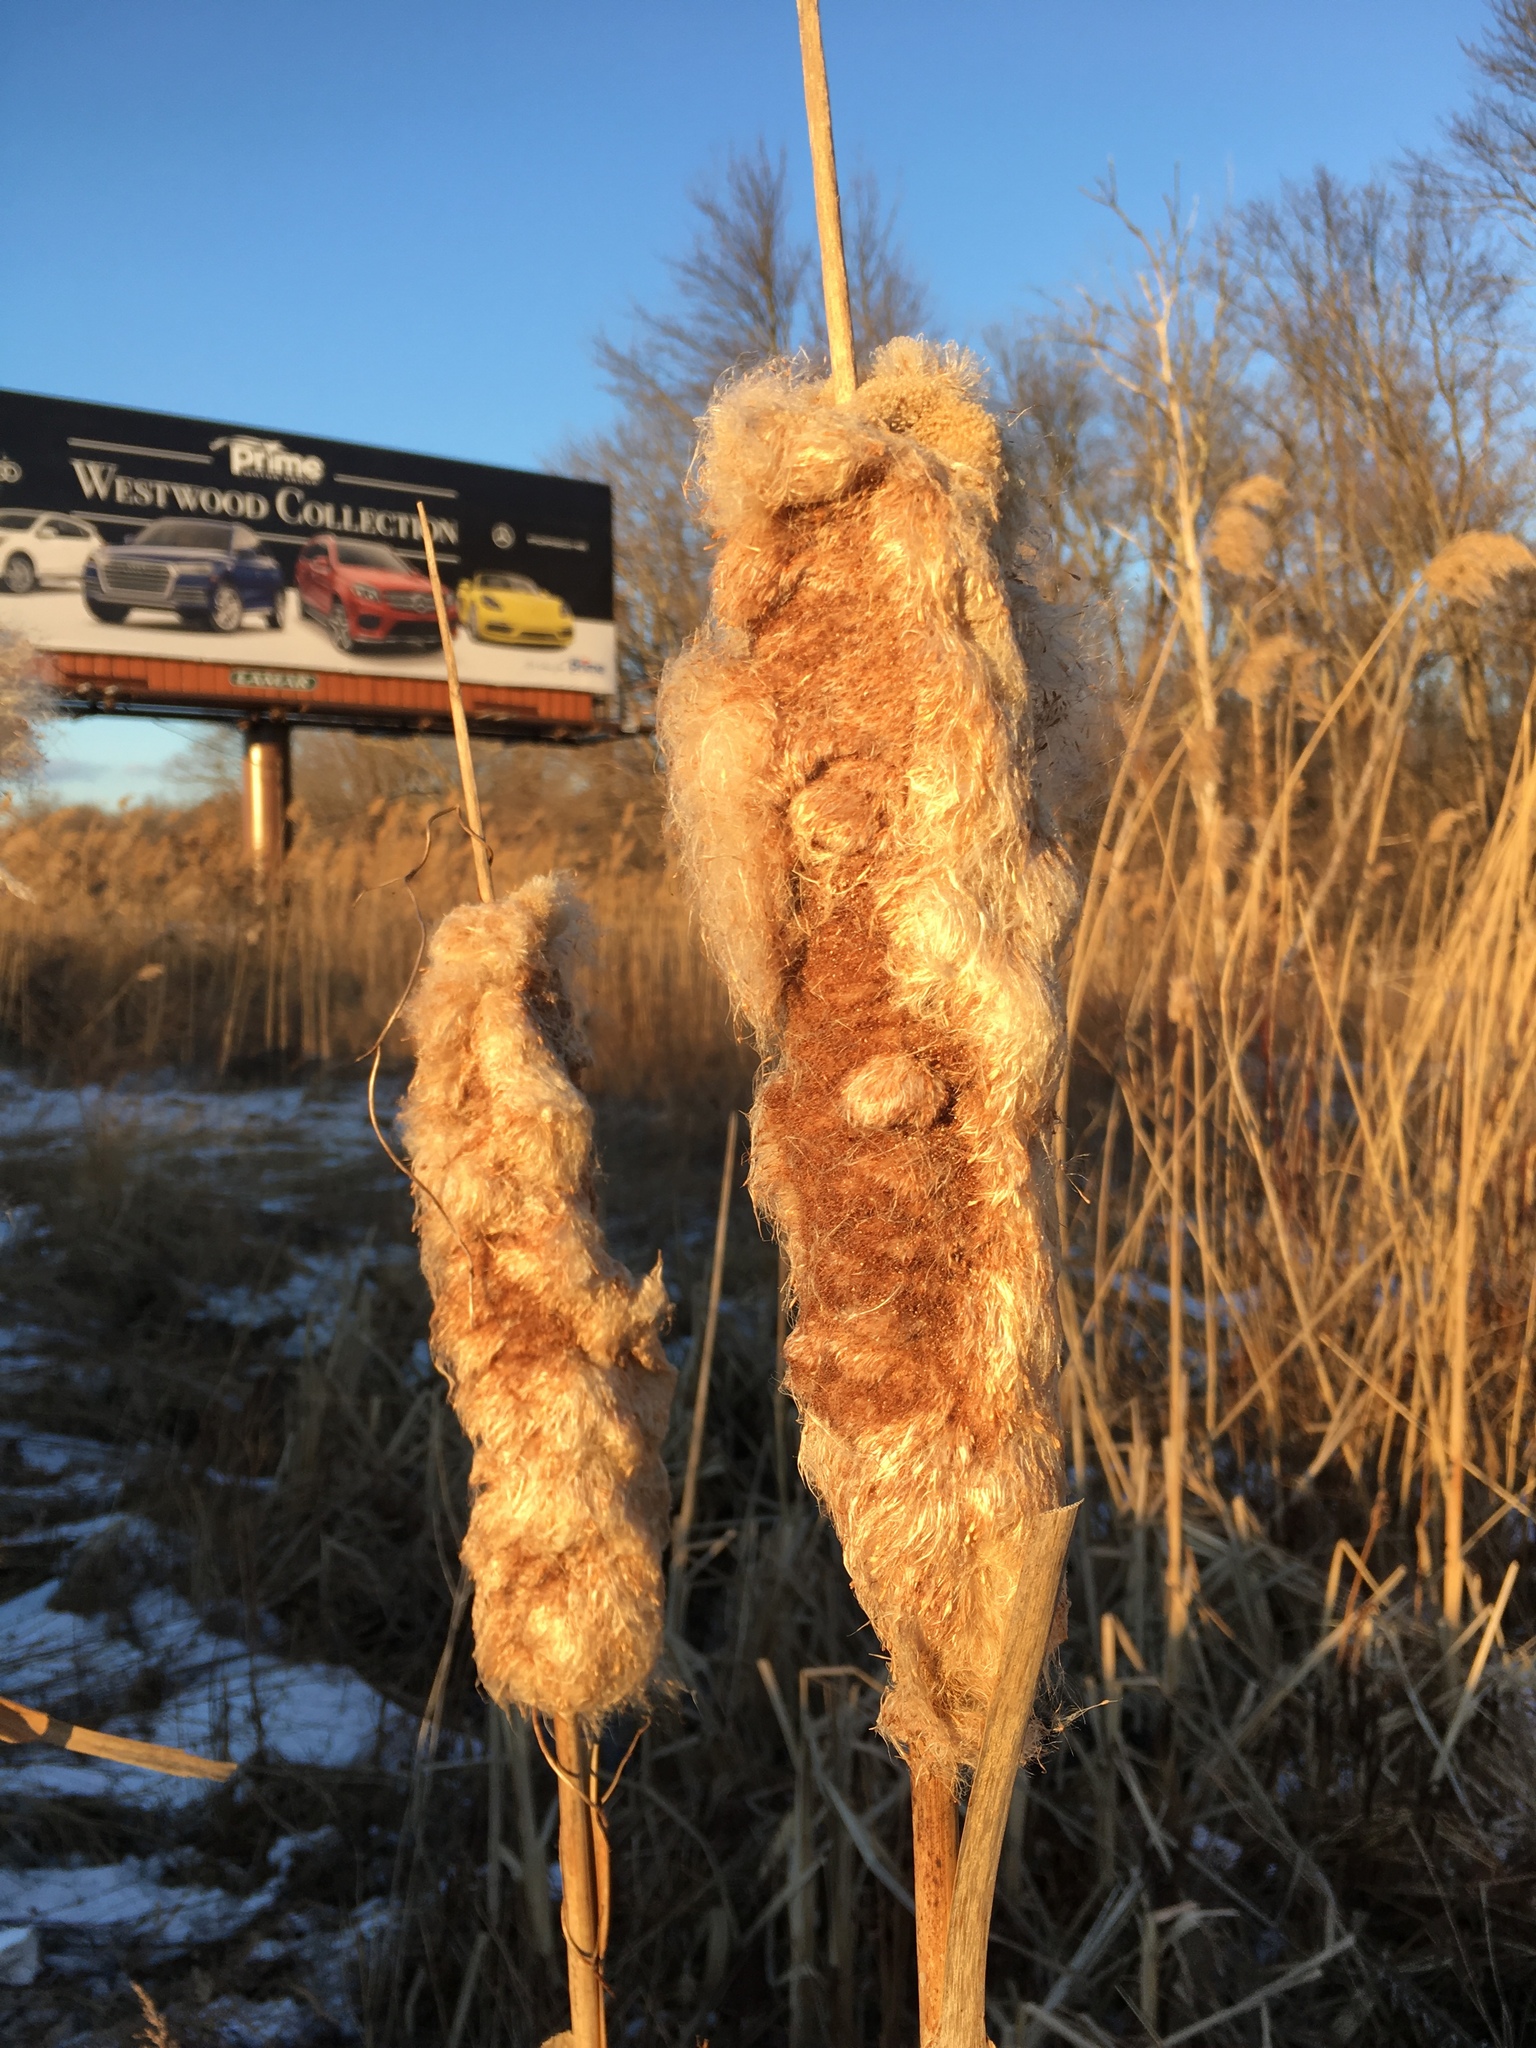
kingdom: Plantae
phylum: Tracheophyta
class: Liliopsida
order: Poales
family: Typhaceae
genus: Typha
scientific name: Typha
